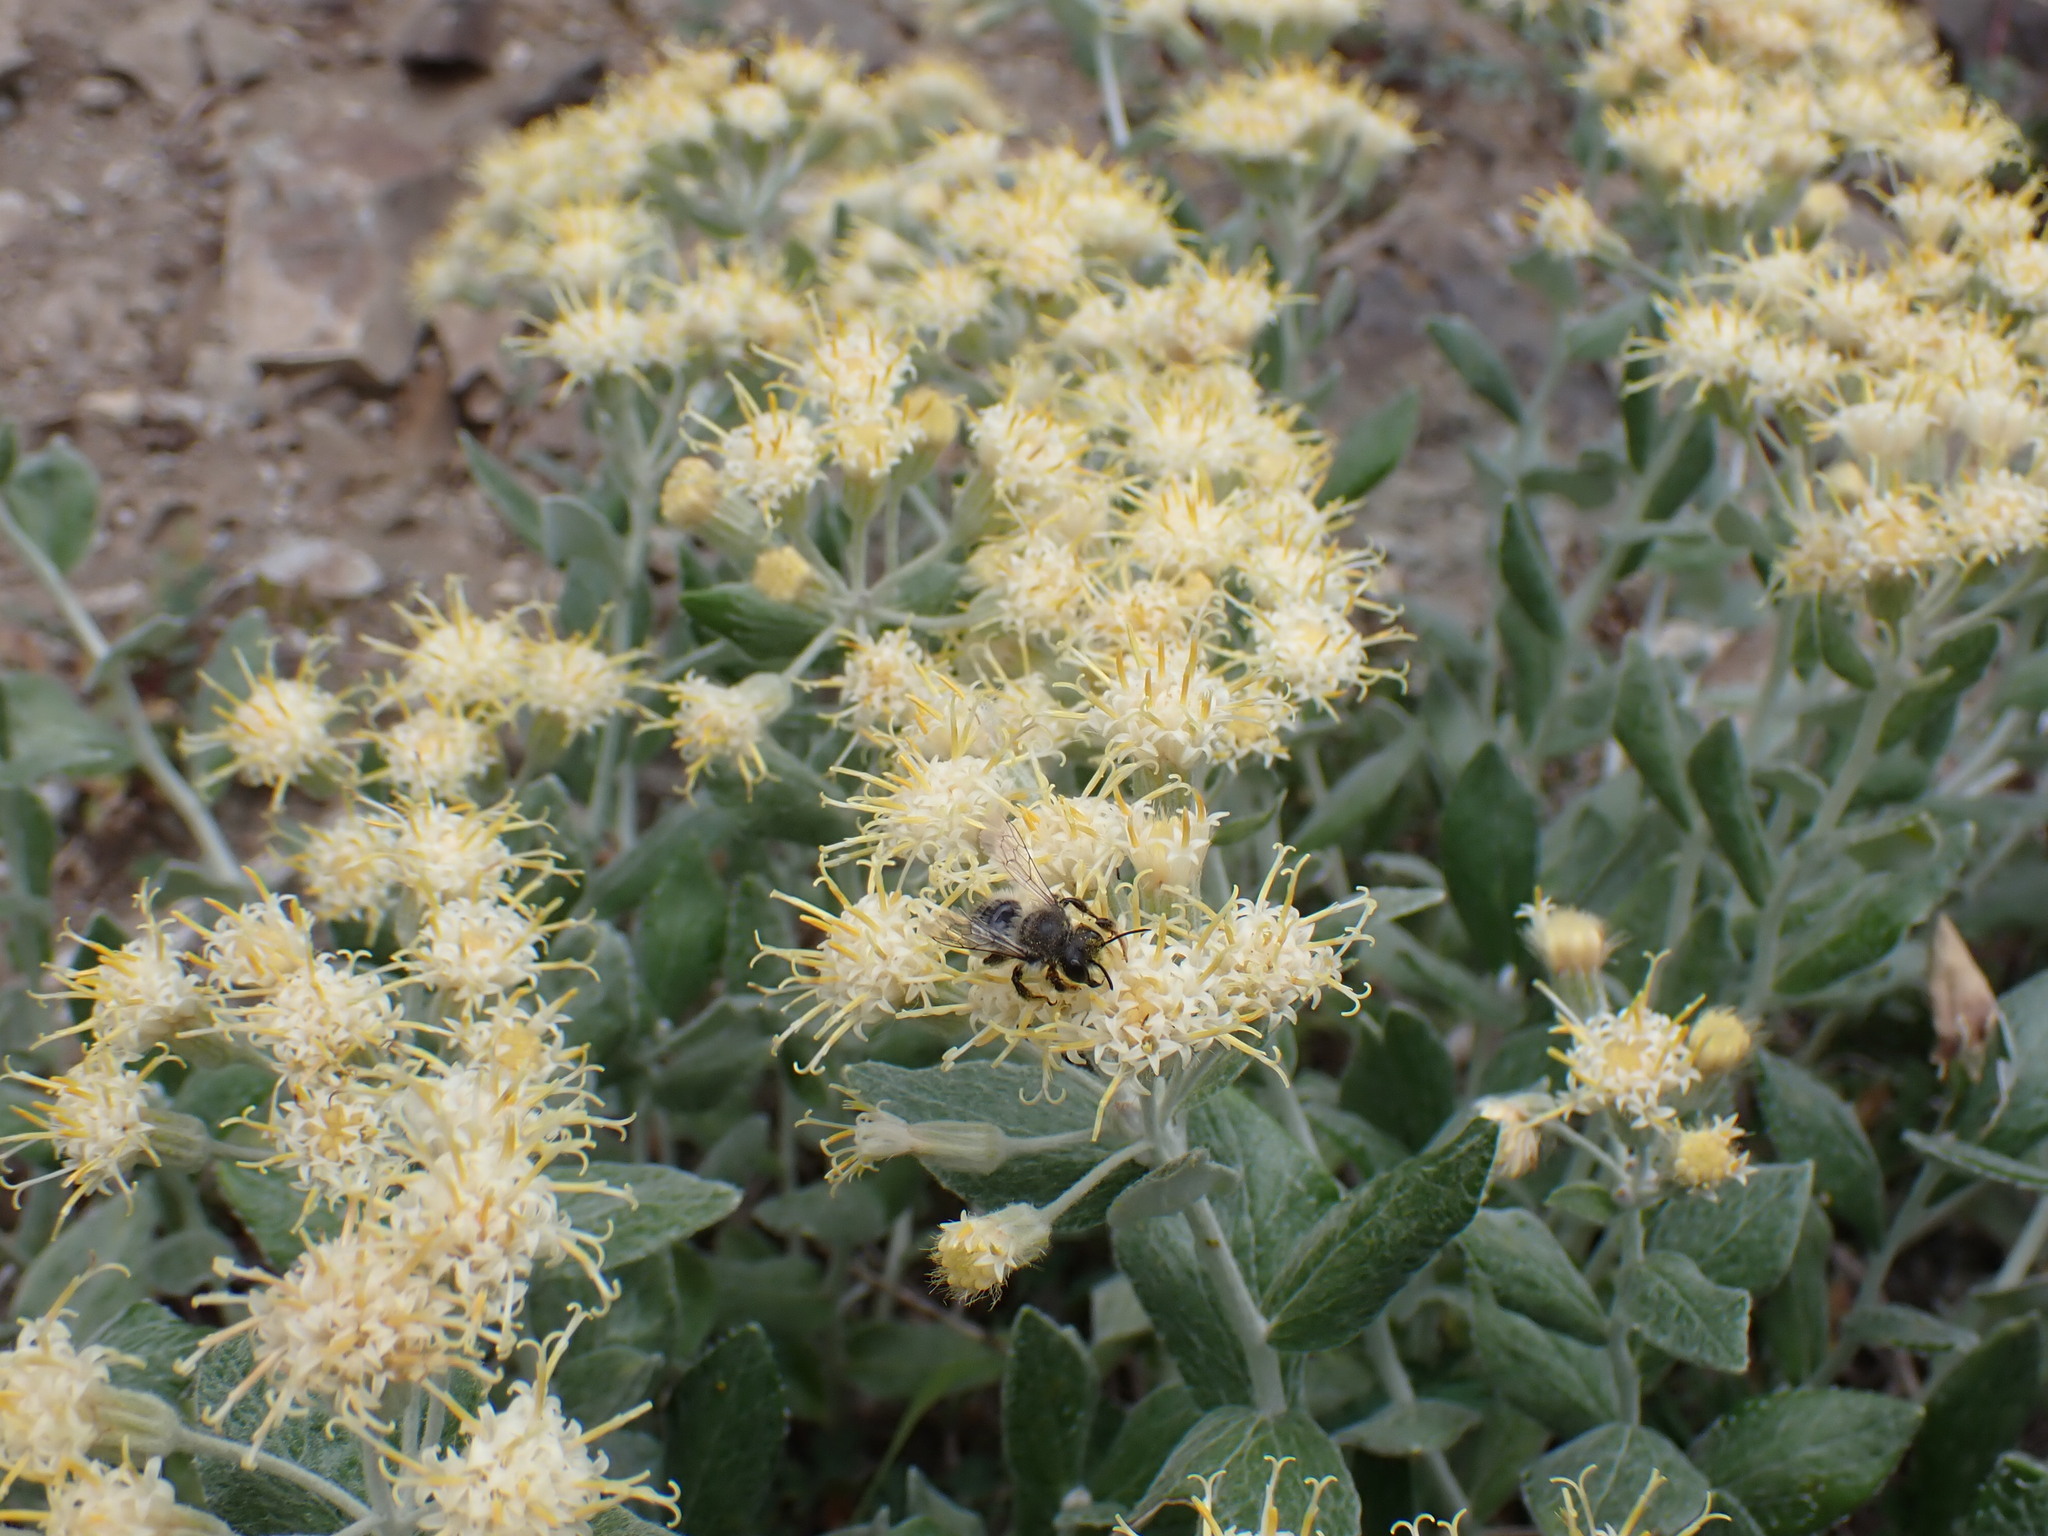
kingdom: Plantae
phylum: Tracheophyta
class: Magnoliopsida
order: Asterales
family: Asteraceae
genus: Luina
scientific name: Luina hypoleuca
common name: Little-leaved luina
